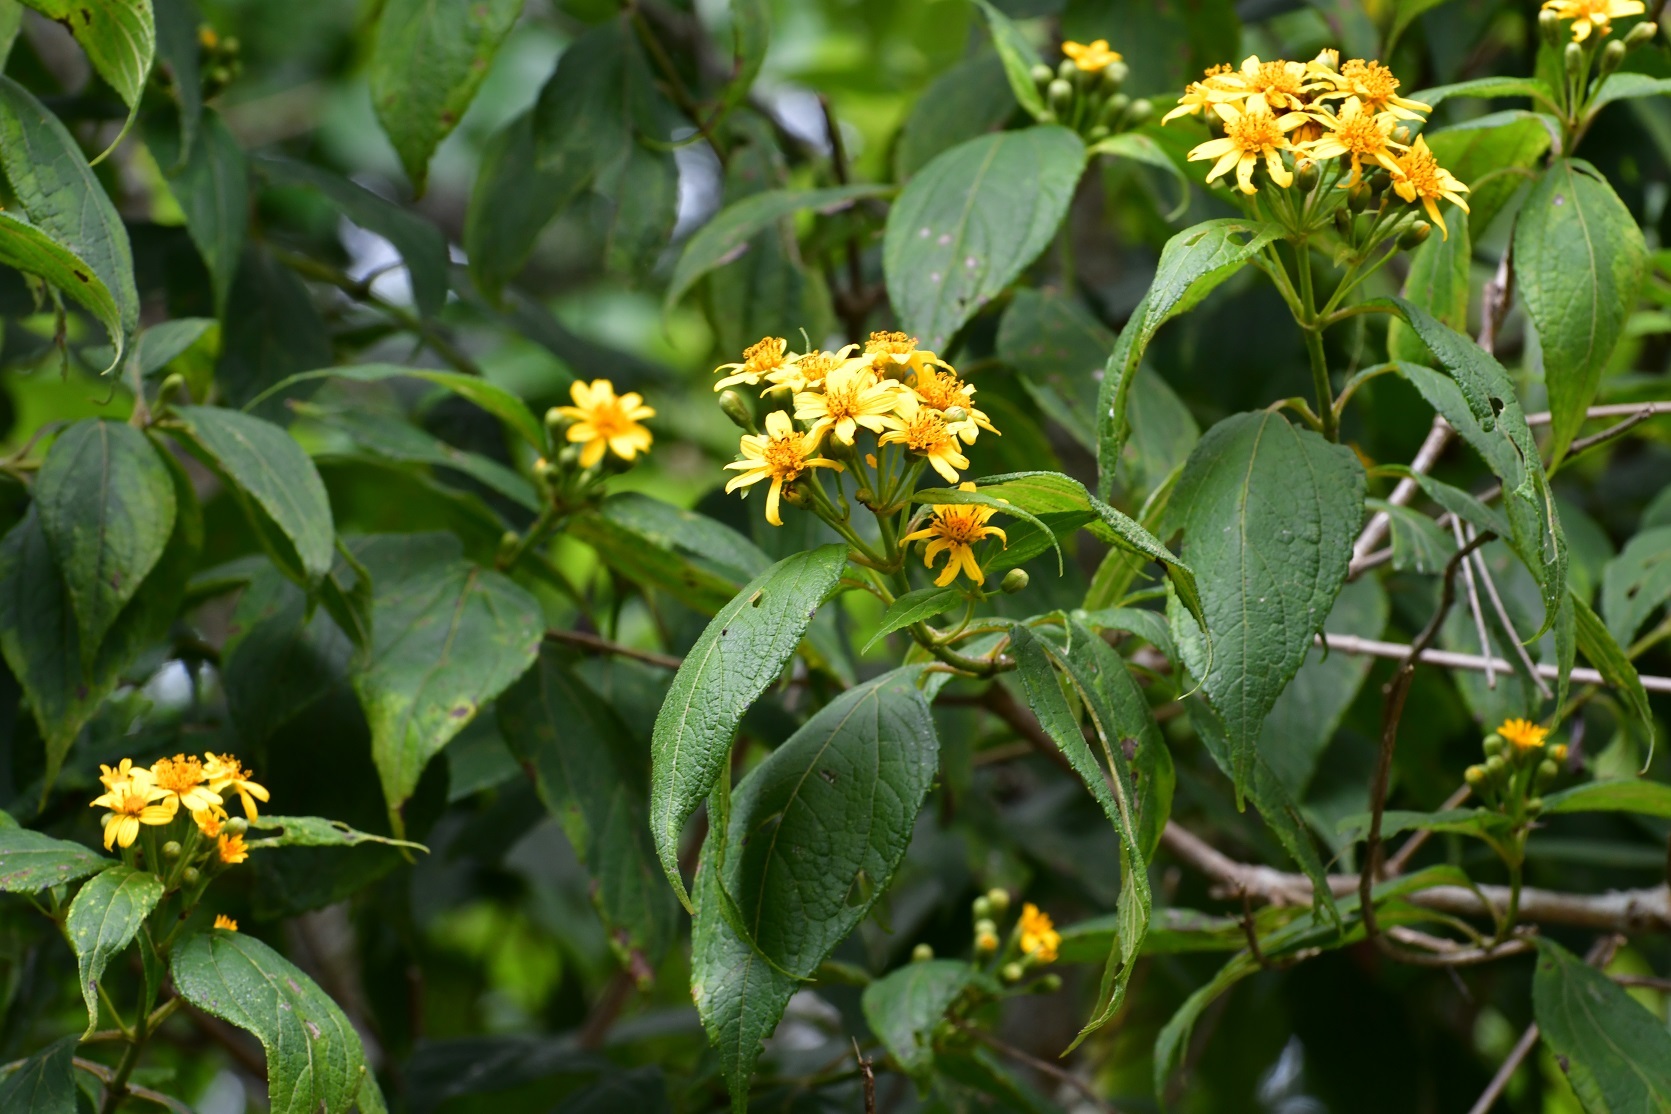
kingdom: Plantae
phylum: Tracheophyta
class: Magnoliopsida
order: Asterales
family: Asteraceae
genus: Perymenium
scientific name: Perymenium grande
